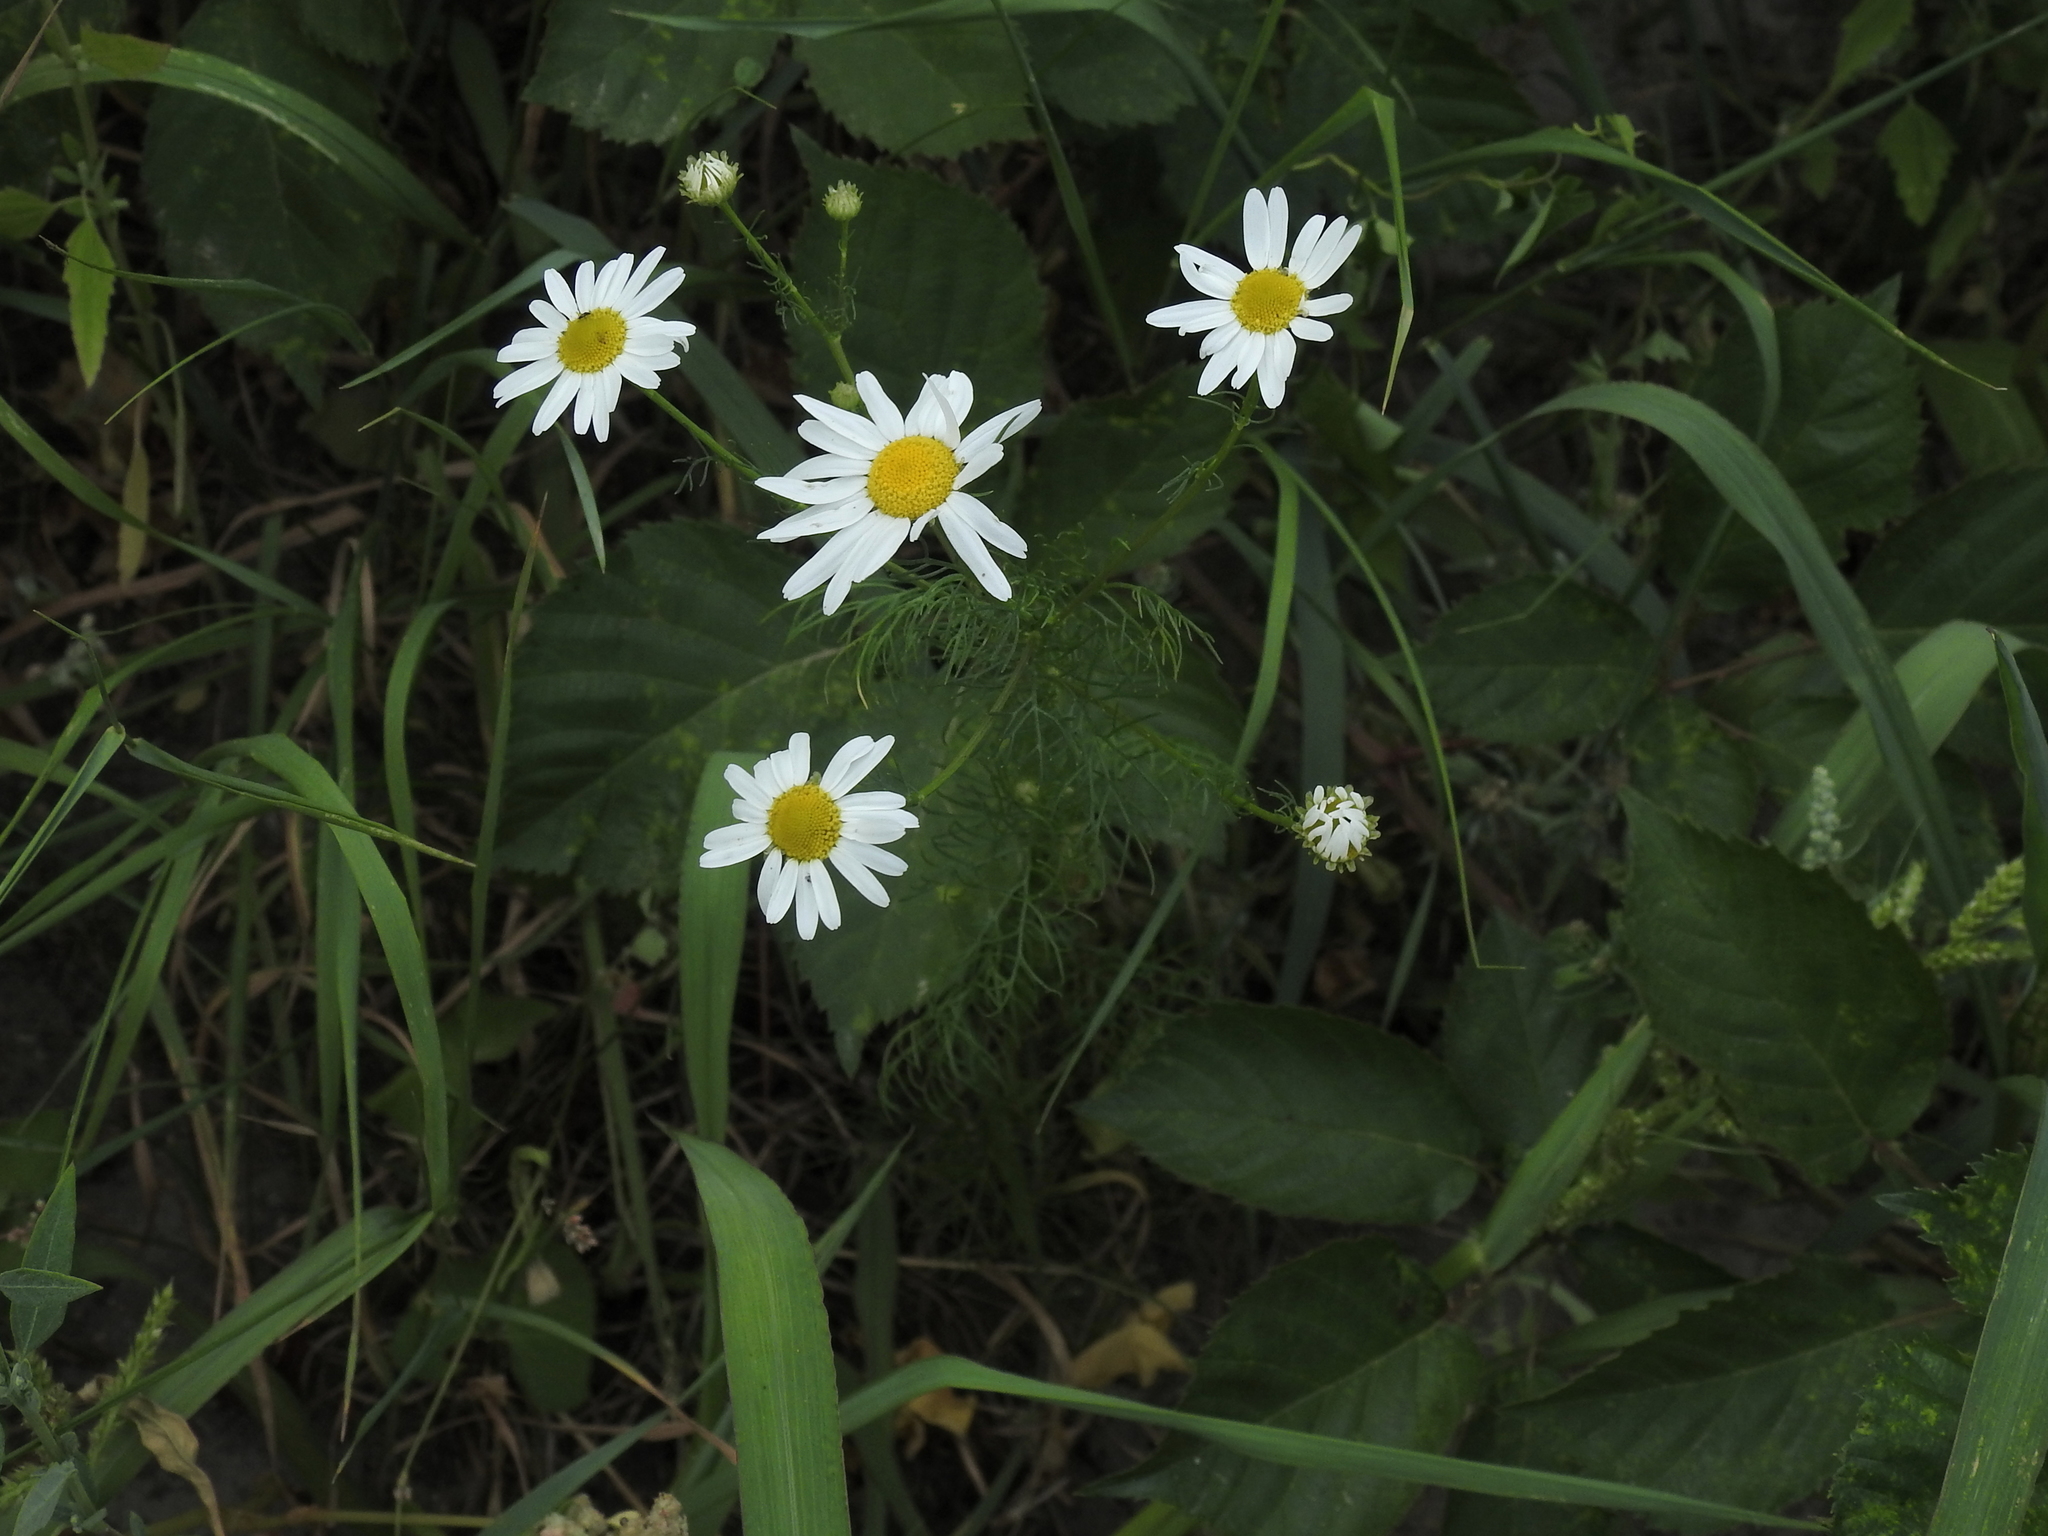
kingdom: Plantae
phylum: Tracheophyta
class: Magnoliopsida
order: Asterales
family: Asteraceae
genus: Tripleurospermum
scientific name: Tripleurospermum inodorum
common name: Scentless mayweed
